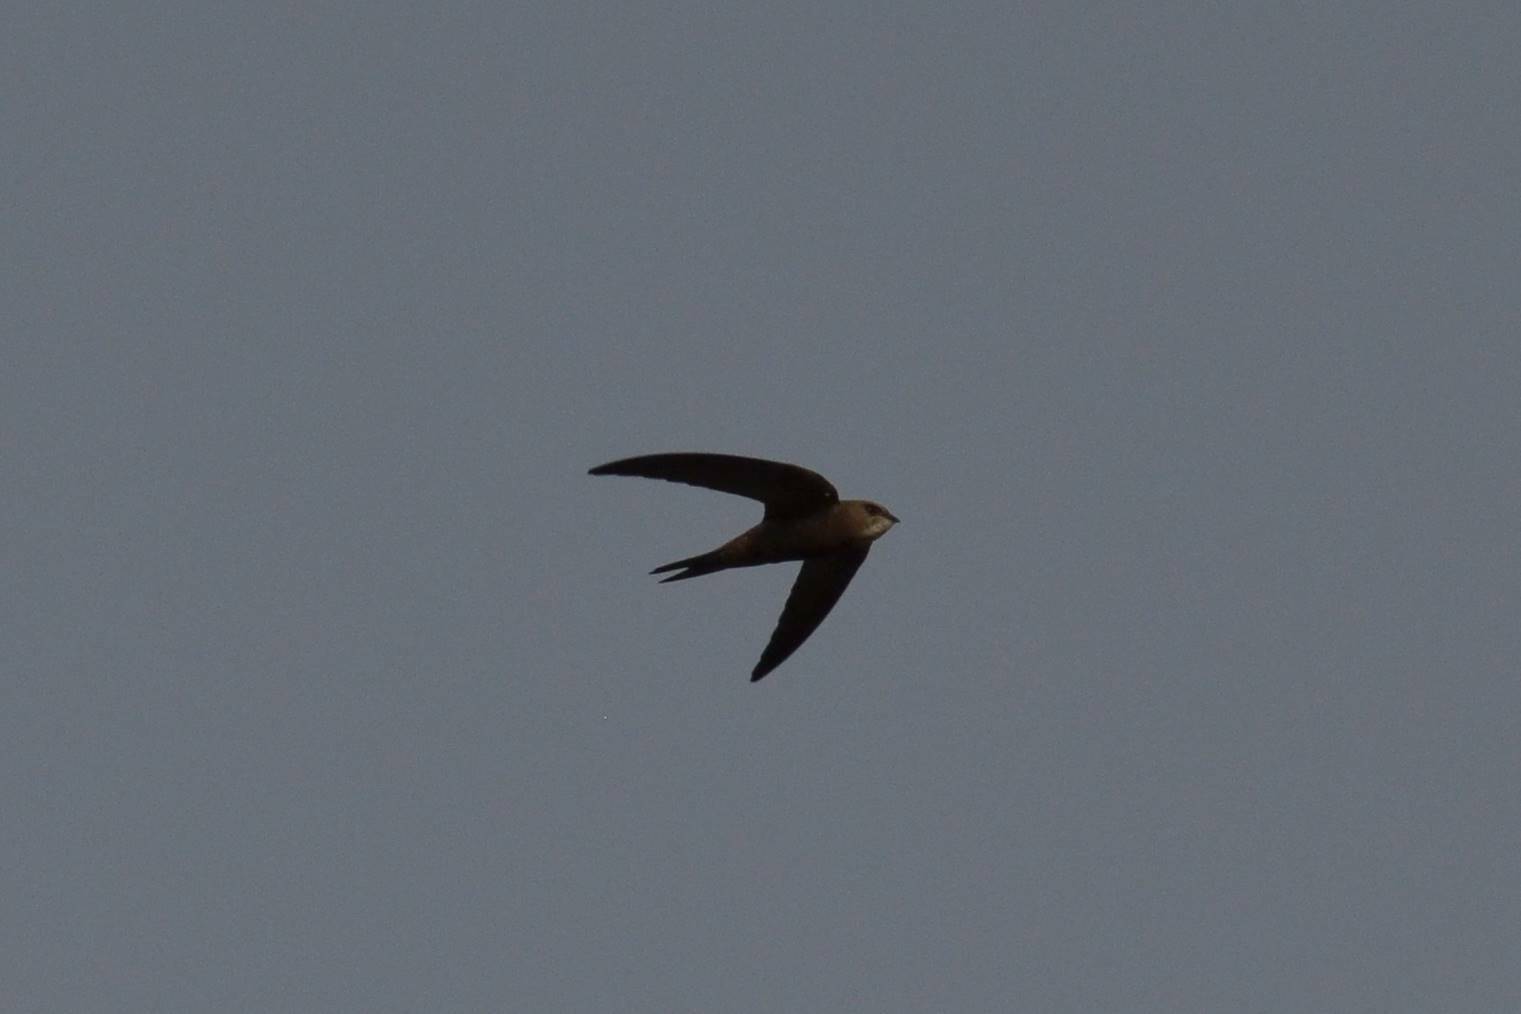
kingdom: Animalia
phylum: Chordata
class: Aves
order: Apodiformes
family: Apodidae
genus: Apus
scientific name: Apus pallidus
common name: Pallid swift
